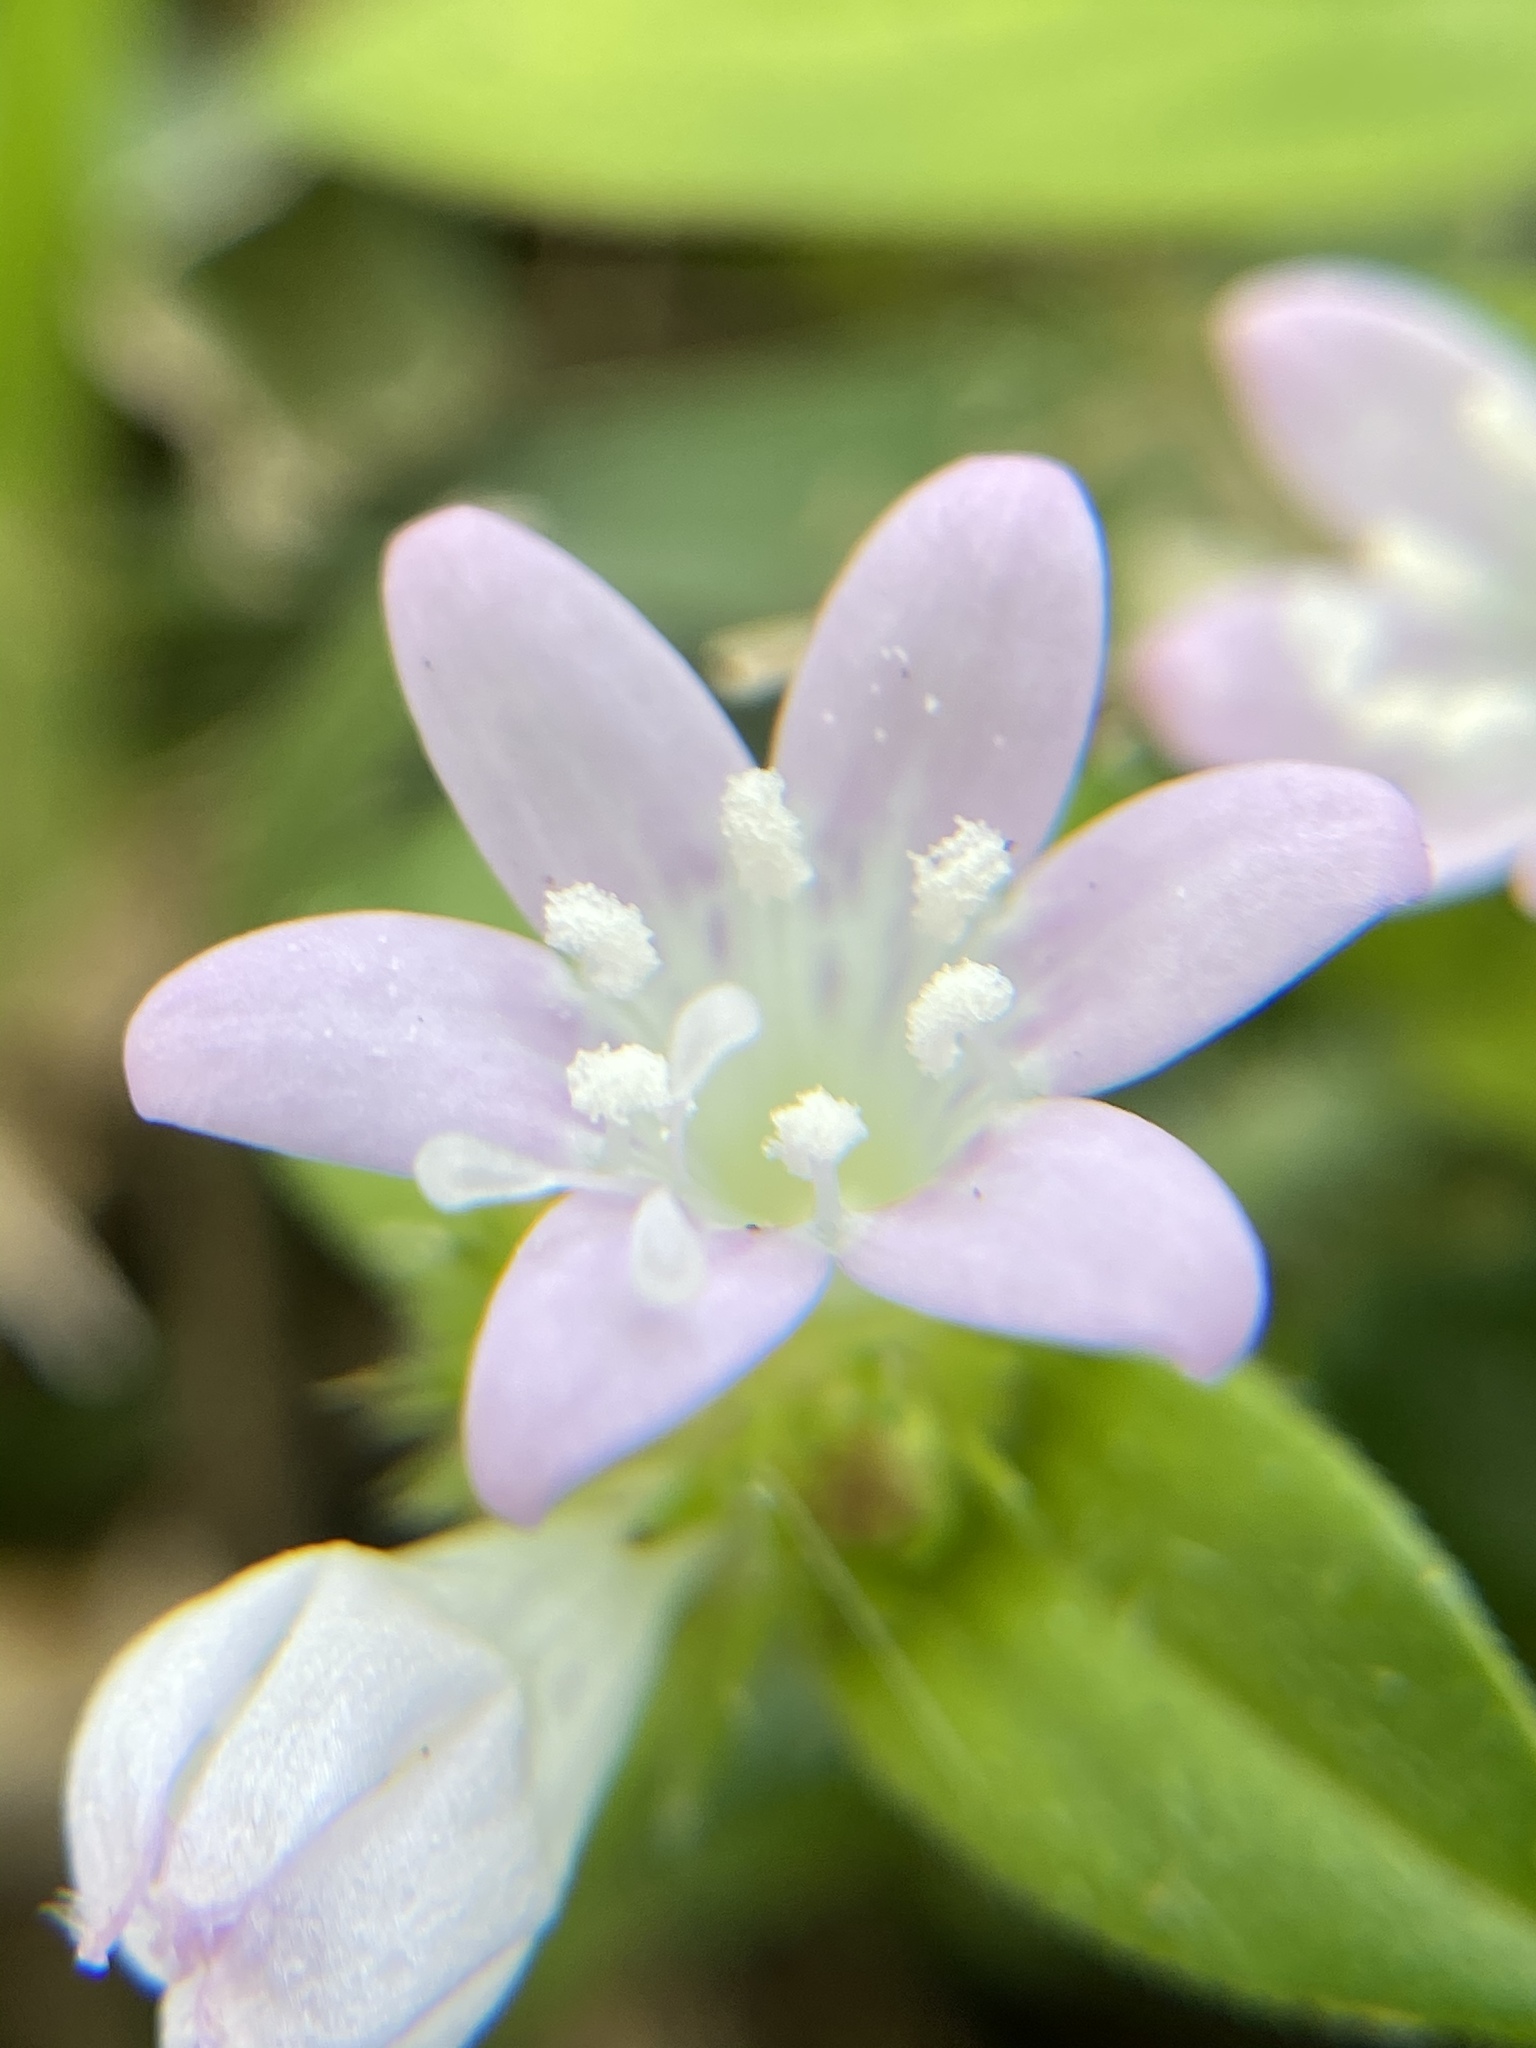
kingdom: Plantae
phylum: Tracheophyta
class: Magnoliopsida
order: Gentianales
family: Rubiaceae
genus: Richardia
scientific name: Richardia grandiflora
